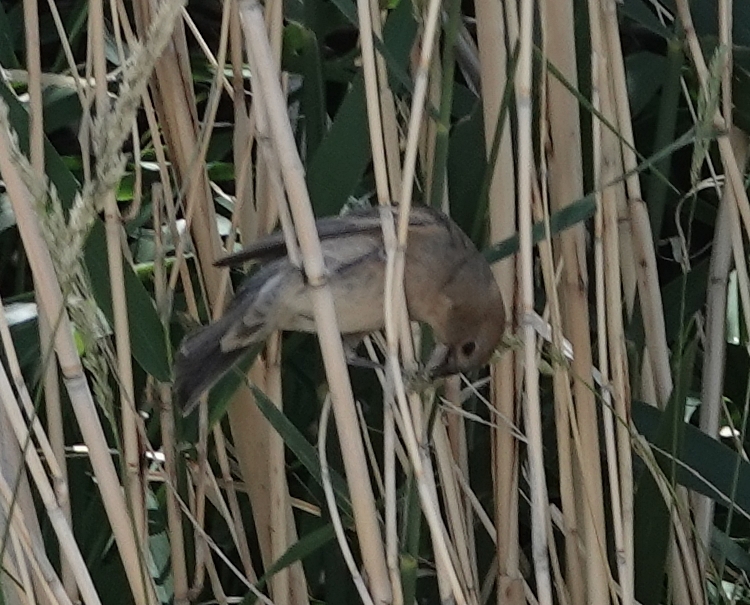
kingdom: Animalia
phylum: Chordata
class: Aves
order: Passeriformes
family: Icteridae
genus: Molothrus
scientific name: Molothrus ater
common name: Brown-headed cowbird
